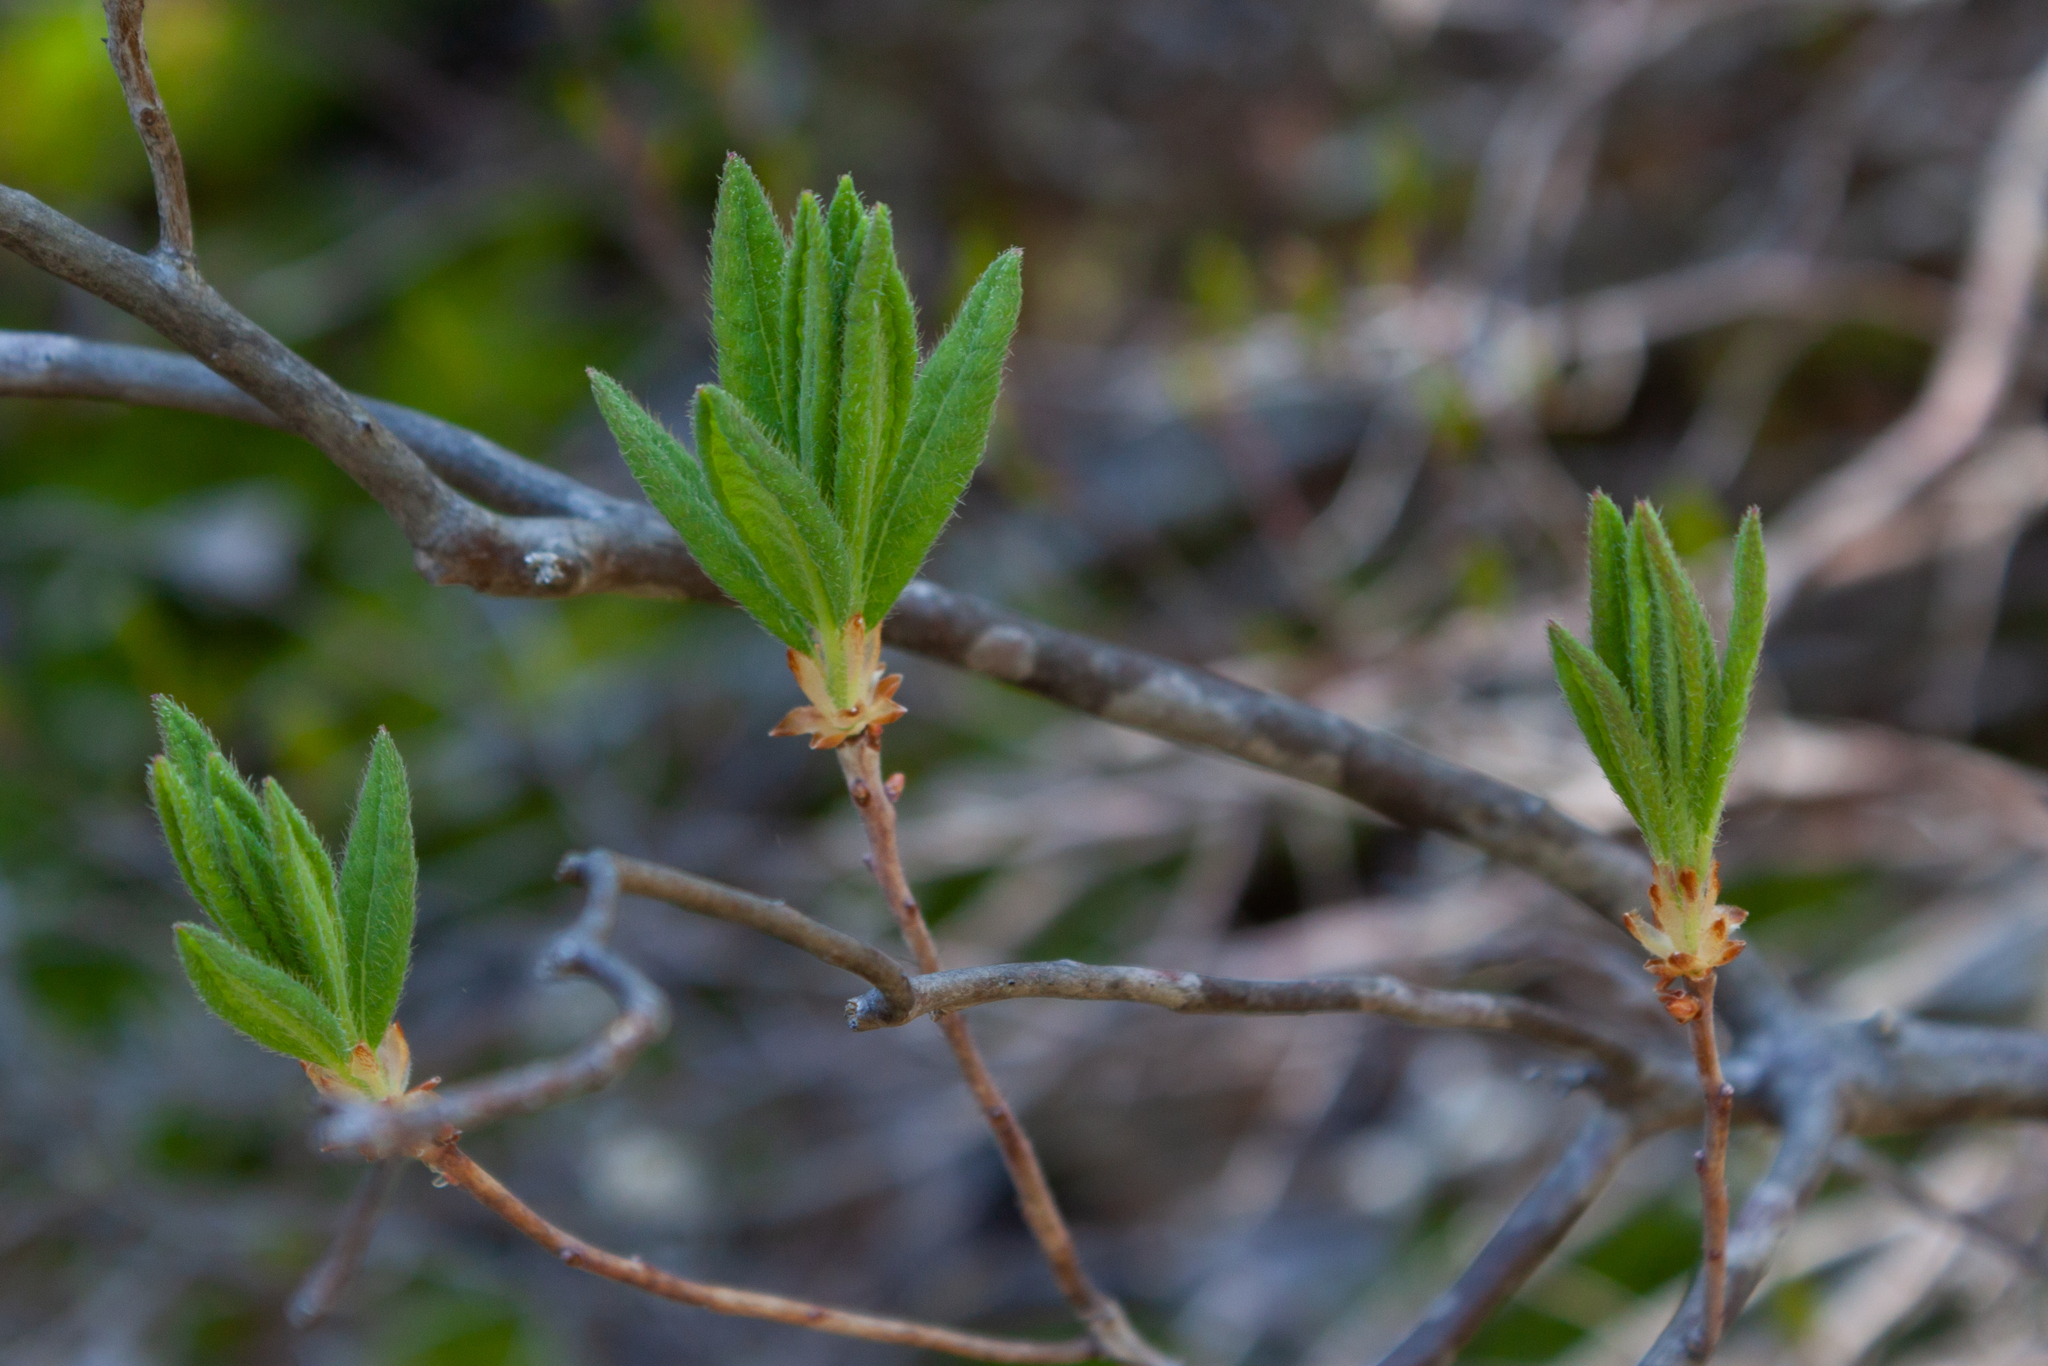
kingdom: Plantae
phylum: Tracheophyta
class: Magnoliopsida
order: Ericales
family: Ericaceae
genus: Rhododendron
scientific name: Rhododendron canadense
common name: Rhodora
